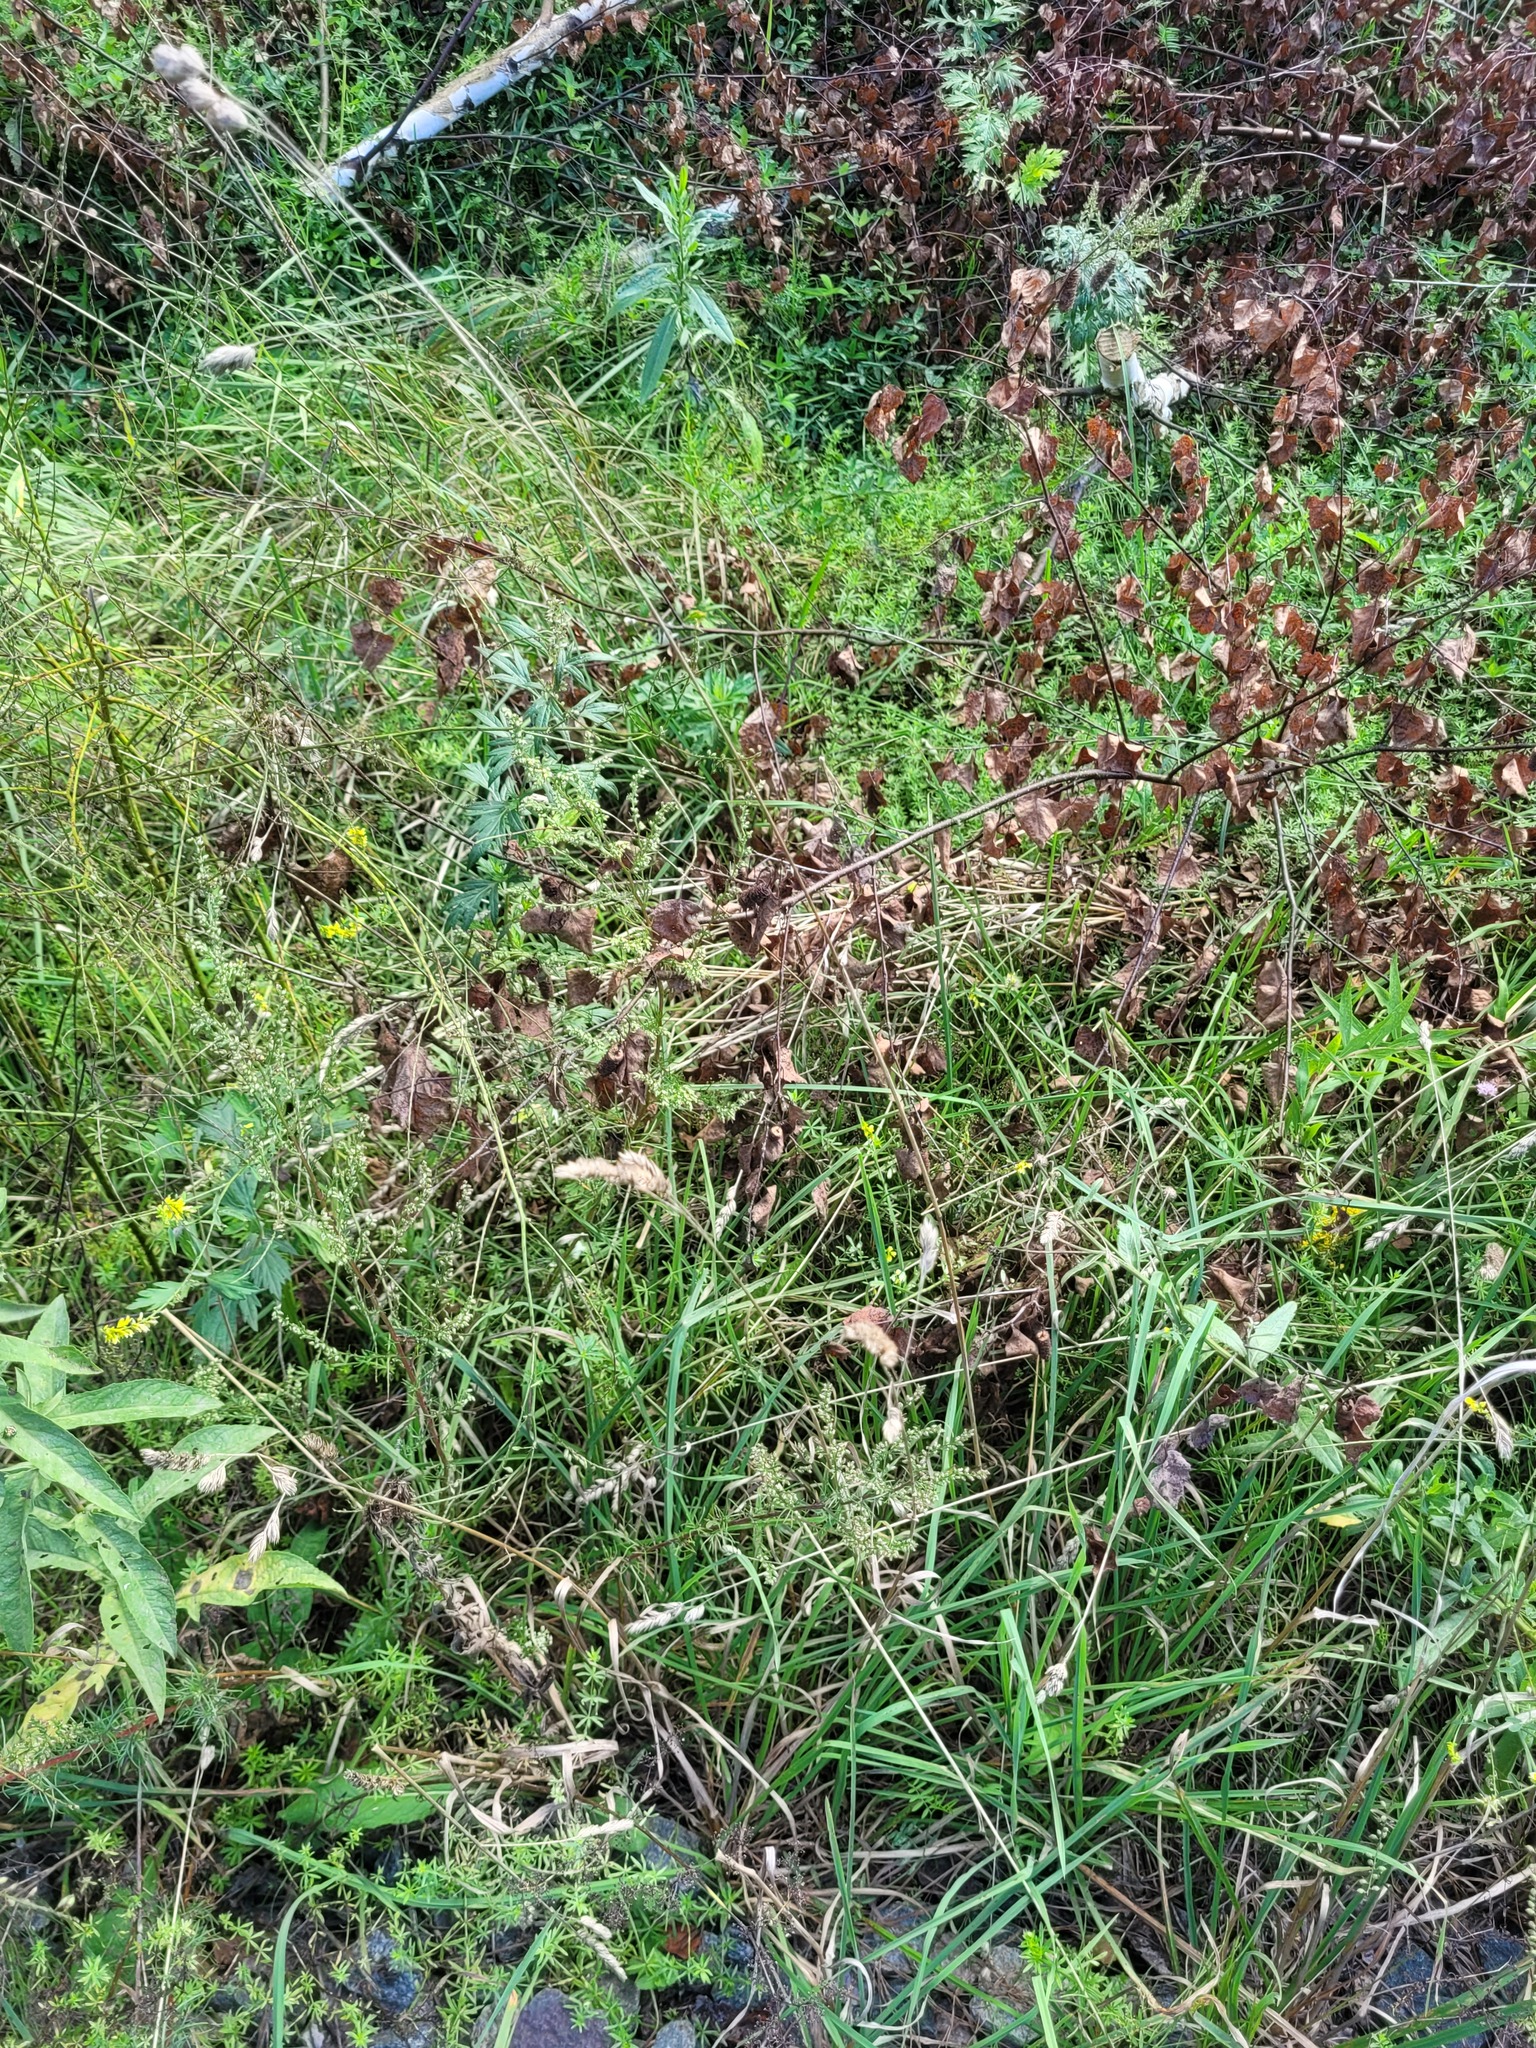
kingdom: Plantae
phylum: Tracheophyta
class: Liliopsida
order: Poales
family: Poaceae
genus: Dactylis
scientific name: Dactylis glomerata
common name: Orchardgrass
